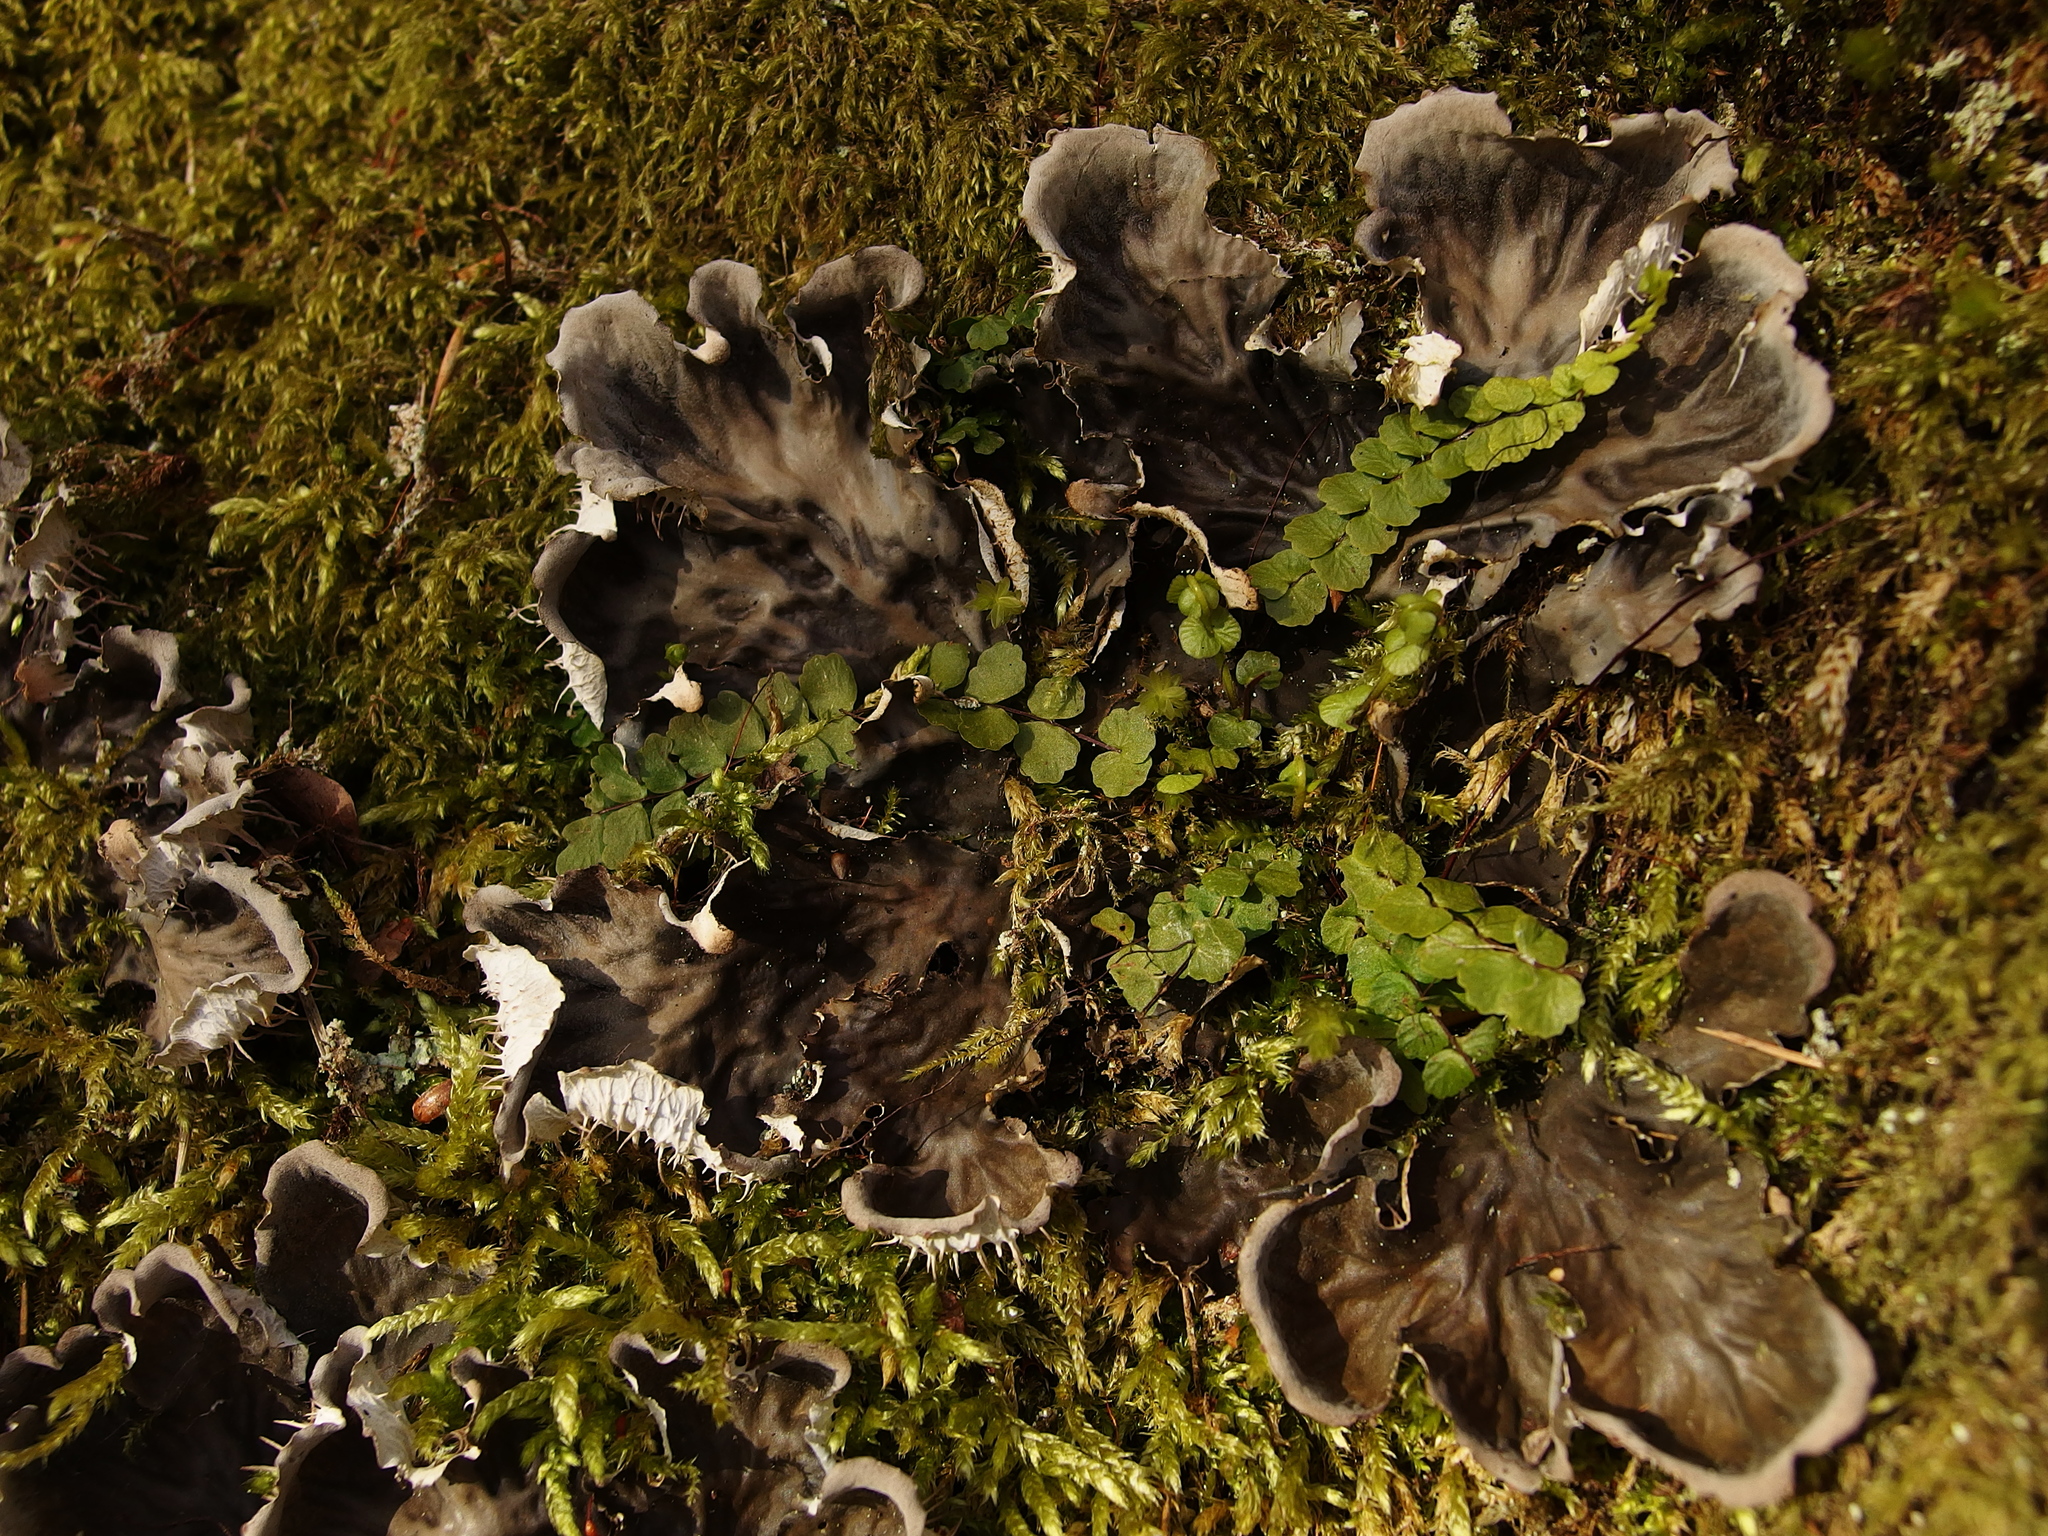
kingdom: Fungi
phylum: Ascomycota
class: Lecanoromycetes
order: Peltigerales
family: Peltigeraceae
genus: Peltigera
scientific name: Peltigera praetextata
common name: Scaly dog-lichen
